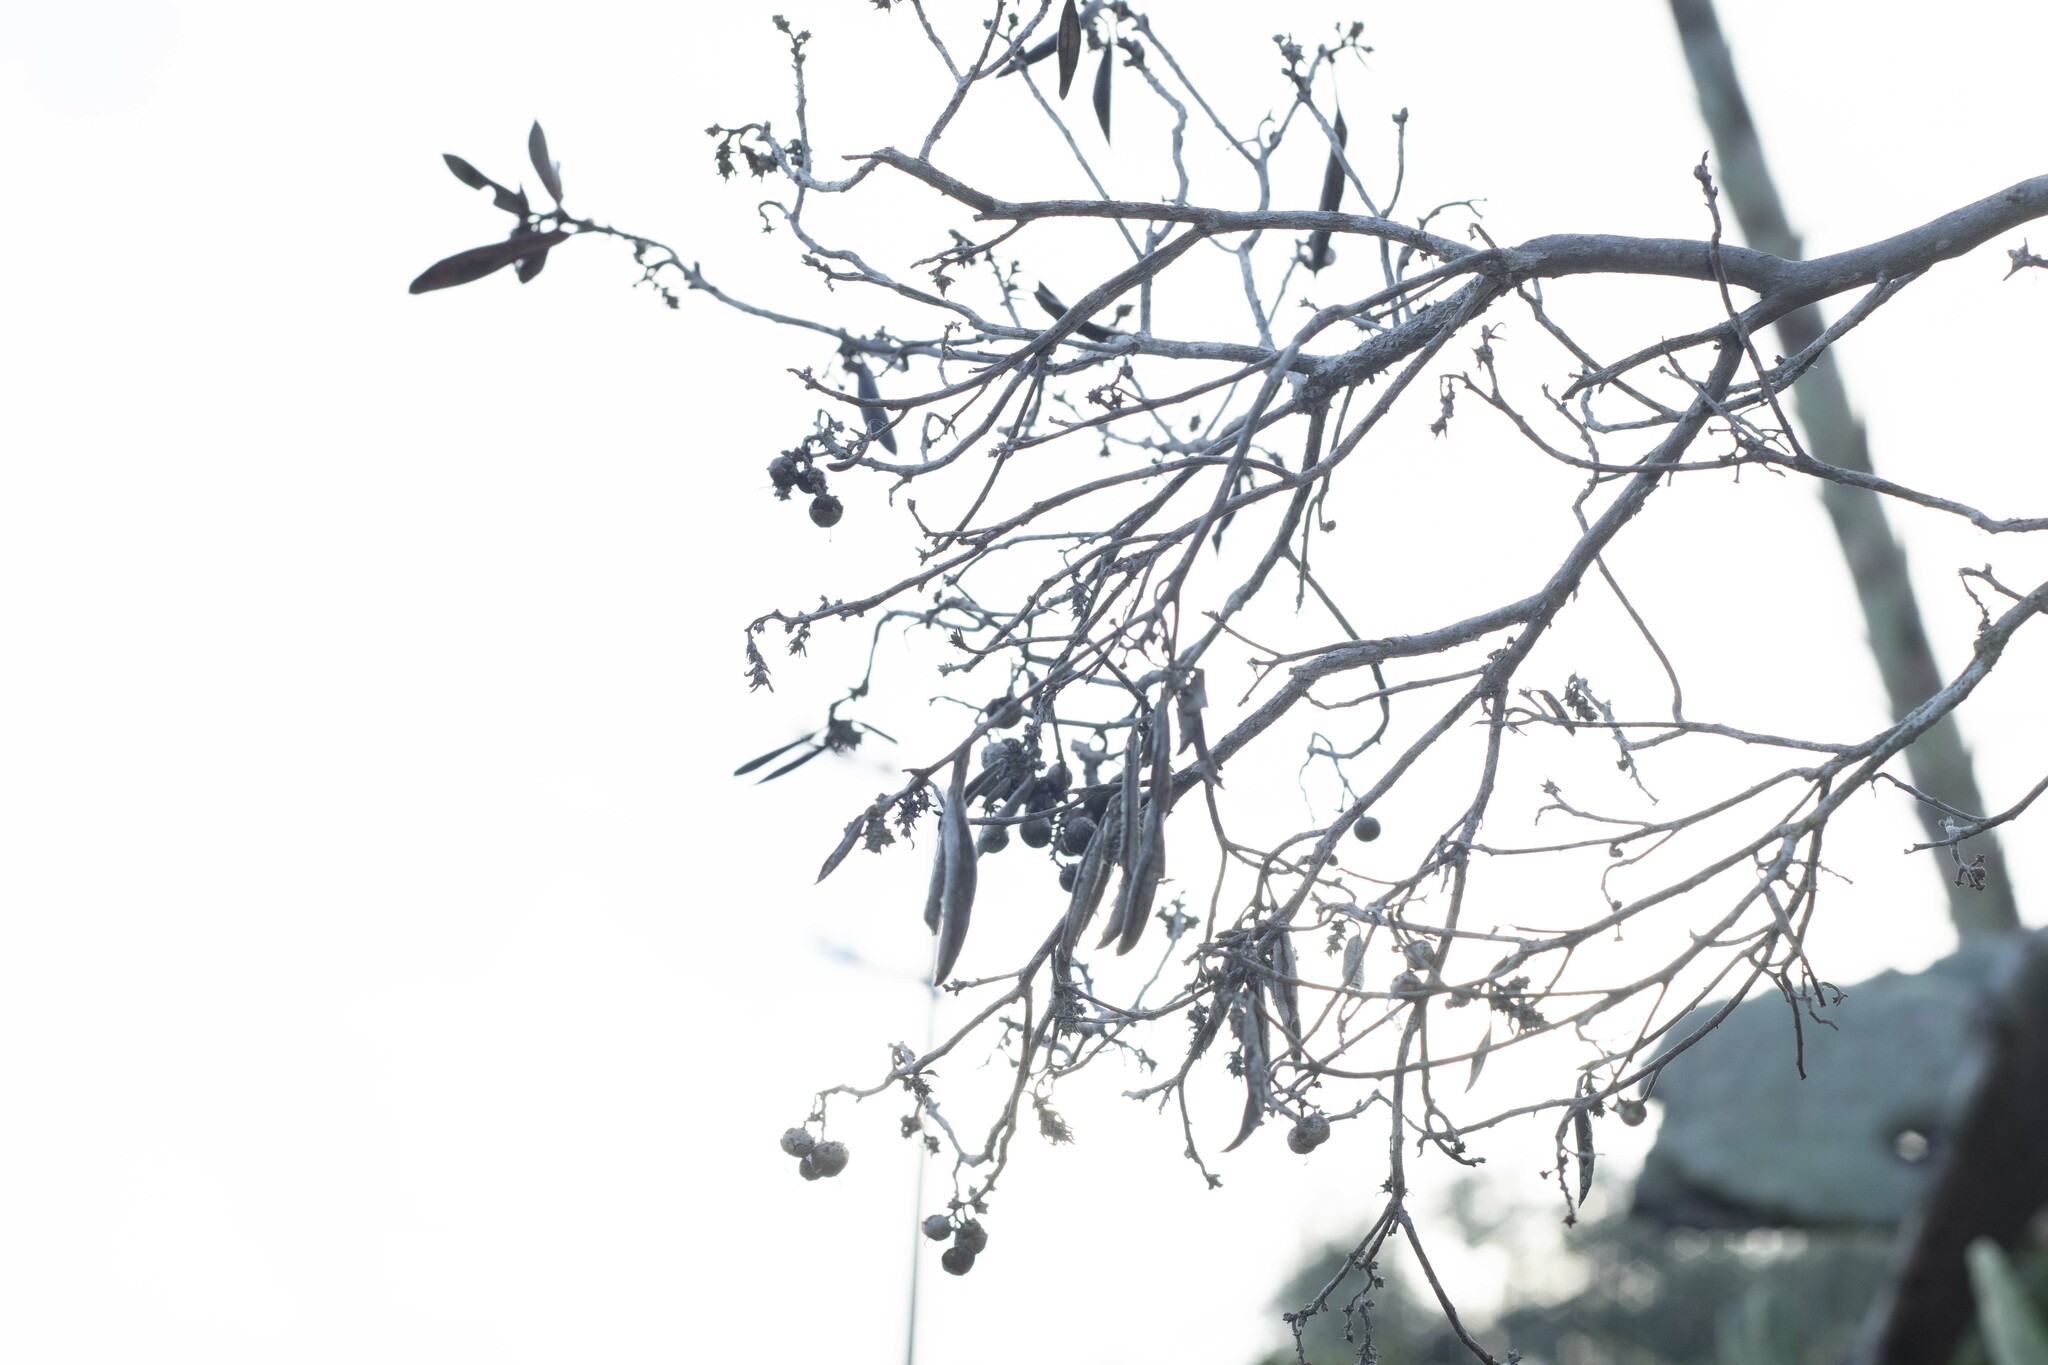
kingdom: Plantae
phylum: Tracheophyta
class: Magnoliopsida
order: Ericales
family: Ericaceae
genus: Arctostaphylos
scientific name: Arctostaphylos bicolor
